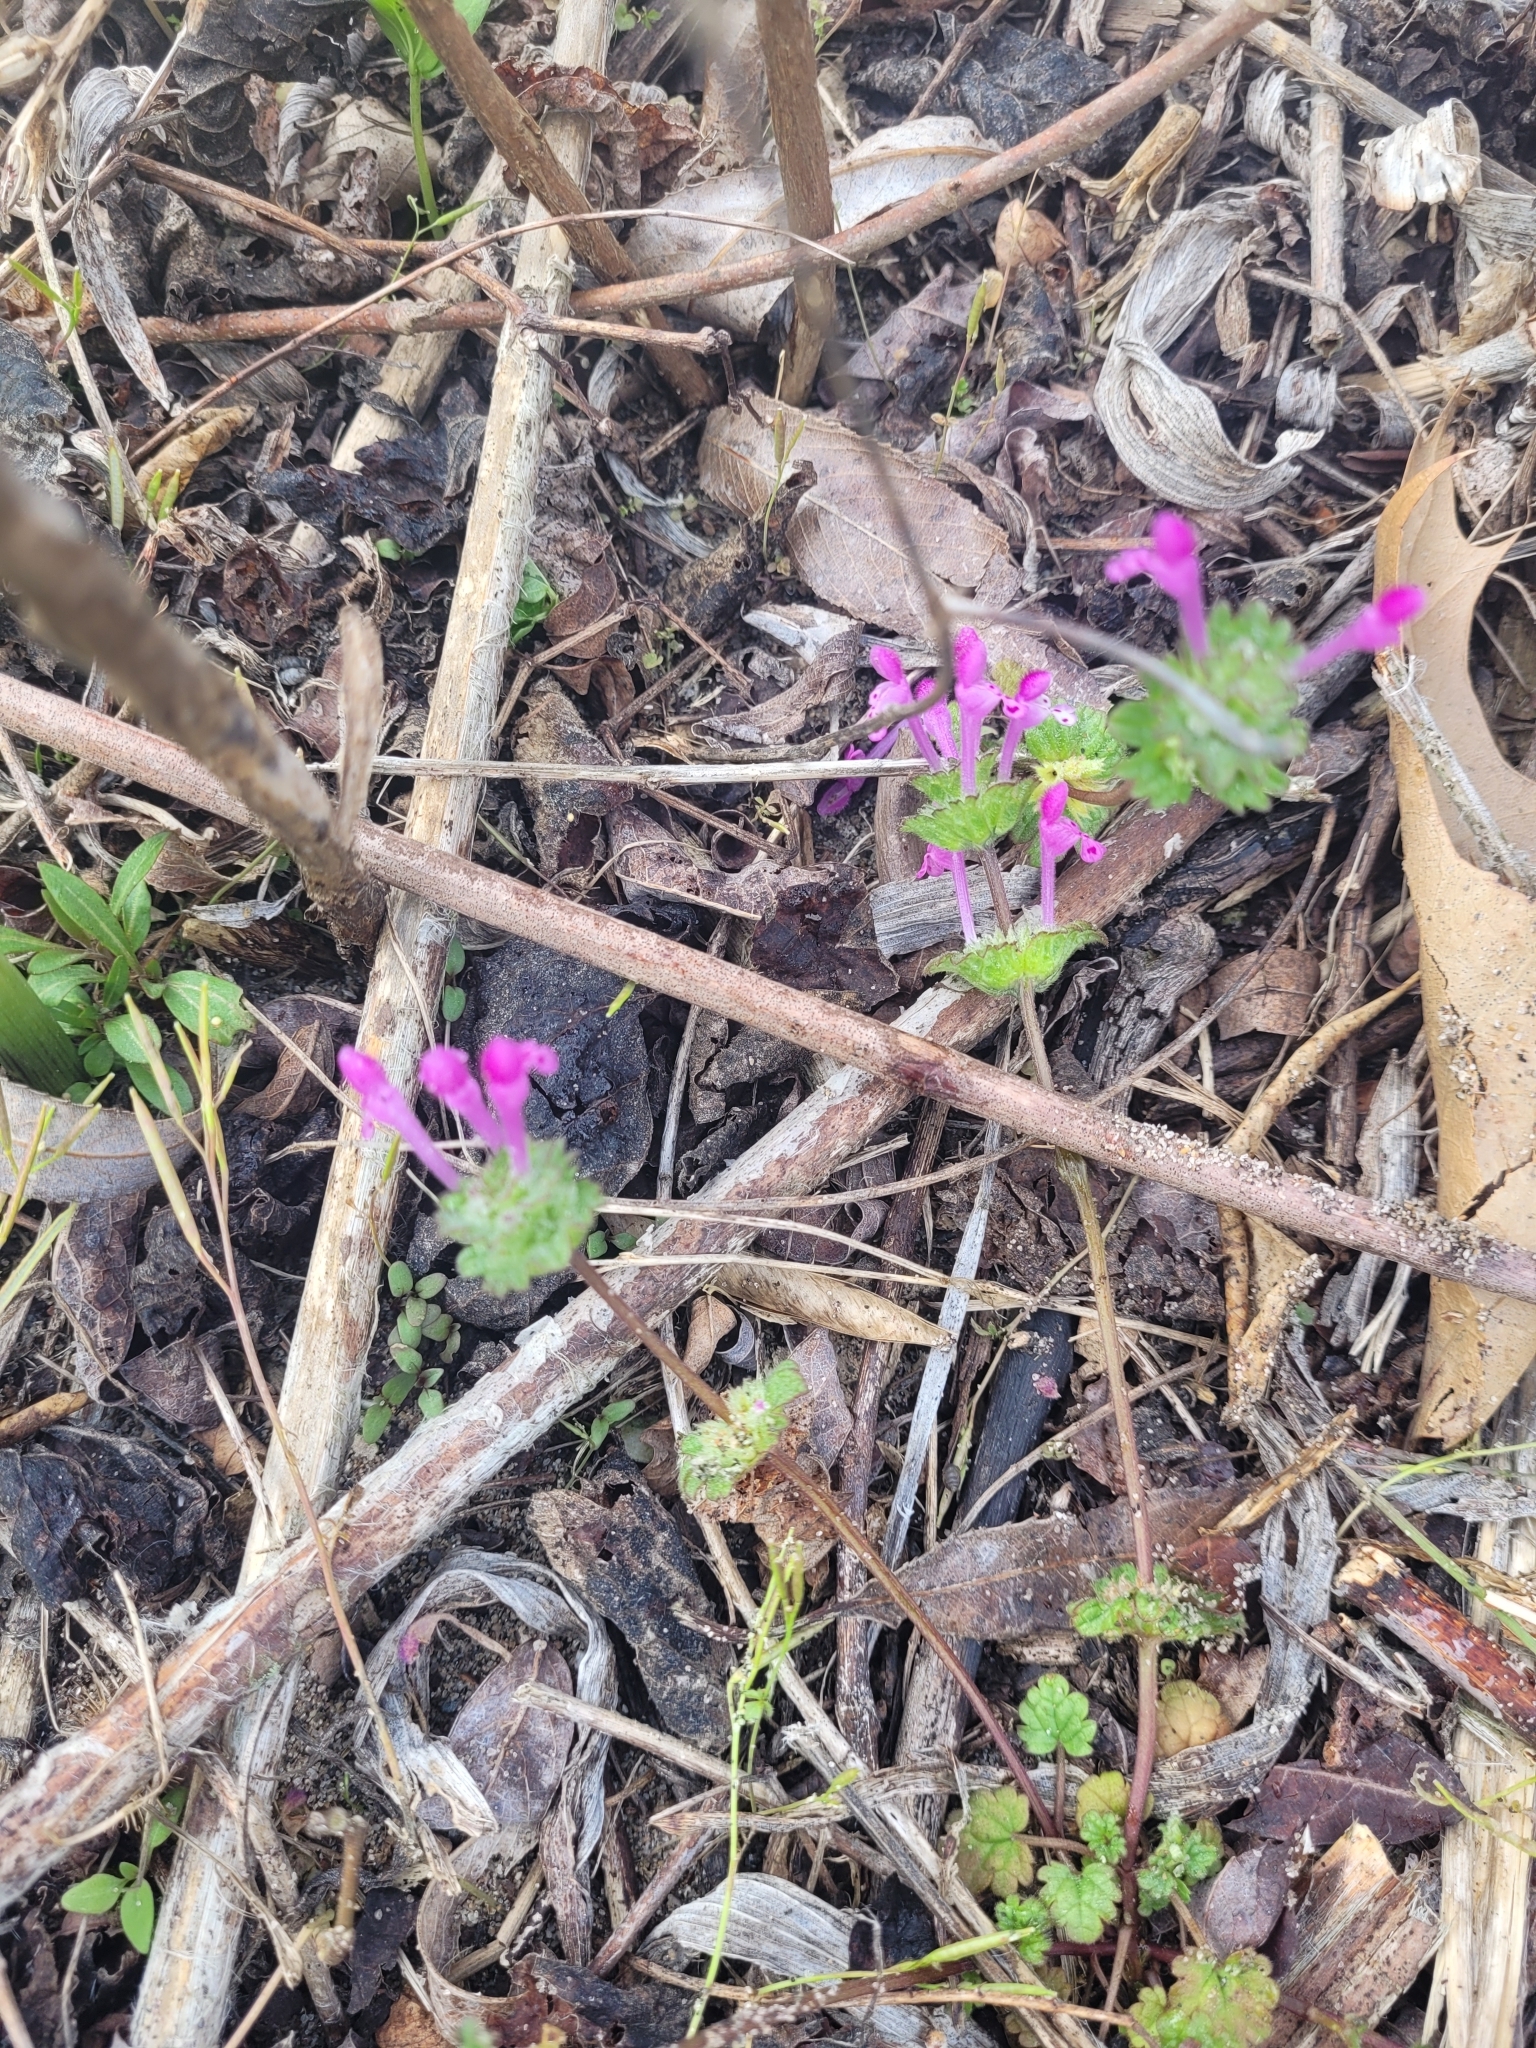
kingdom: Plantae
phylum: Tracheophyta
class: Magnoliopsida
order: Lamiales
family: Lamiaceae
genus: Lamium
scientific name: Lamium amplexicaule
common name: Henbit dead-nettle
